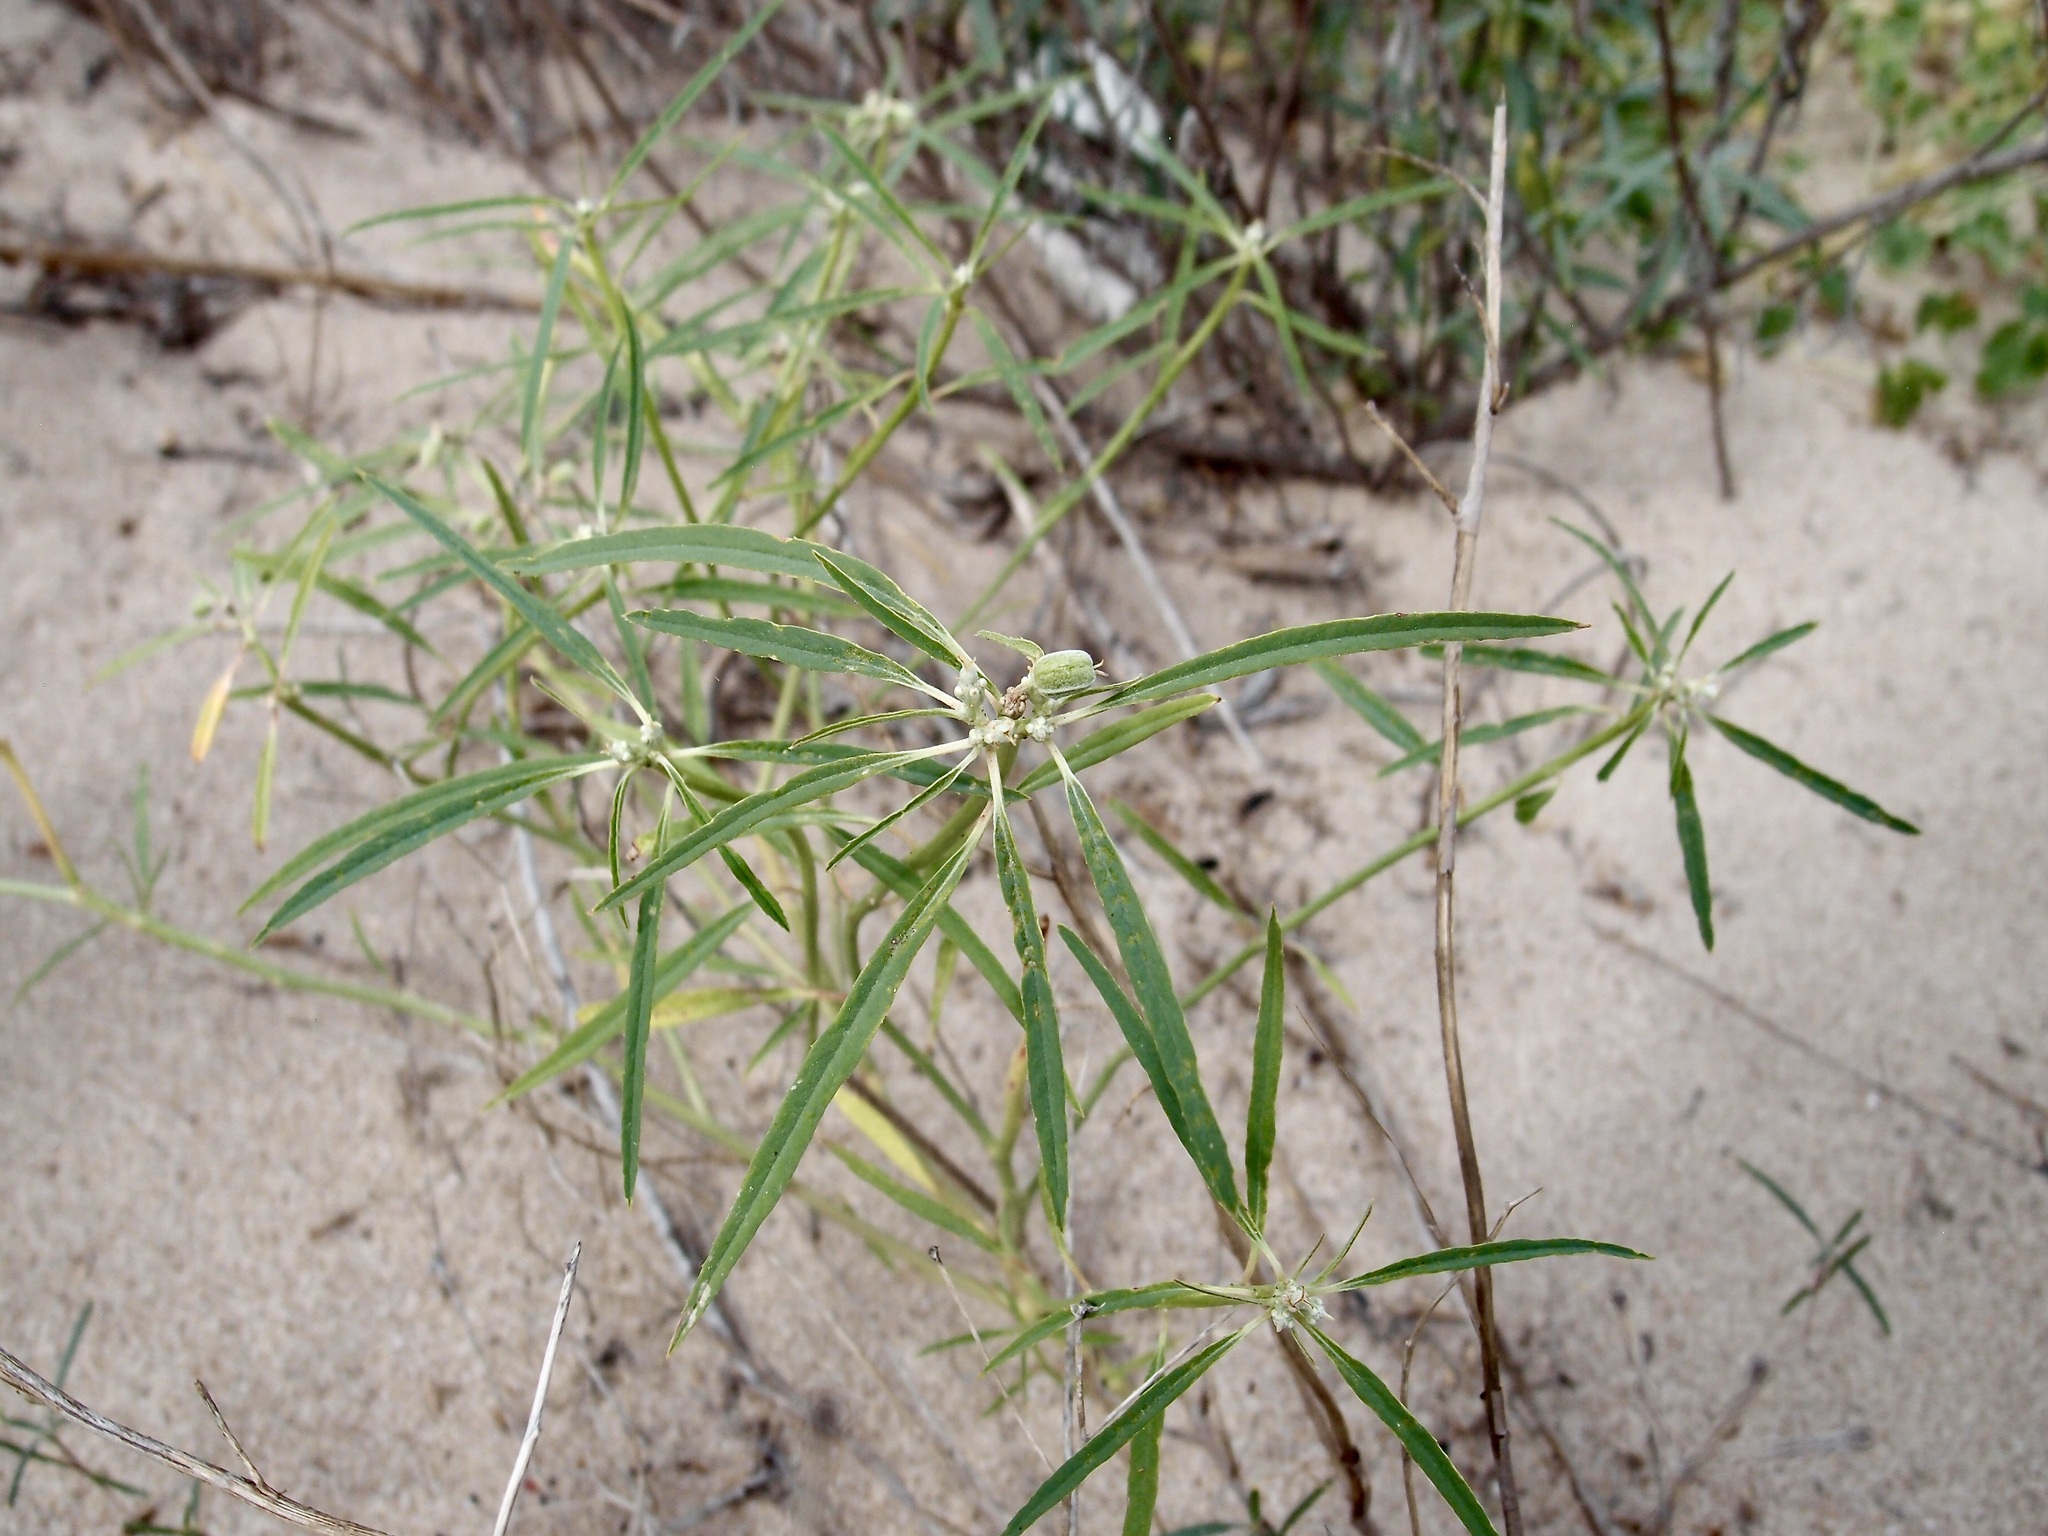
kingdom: Plantae
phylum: Tracheophyta
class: Magnoliopsida
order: Malpighiales
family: Euphorbiaceae
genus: Euphorbia
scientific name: Euphorbia eriantha
